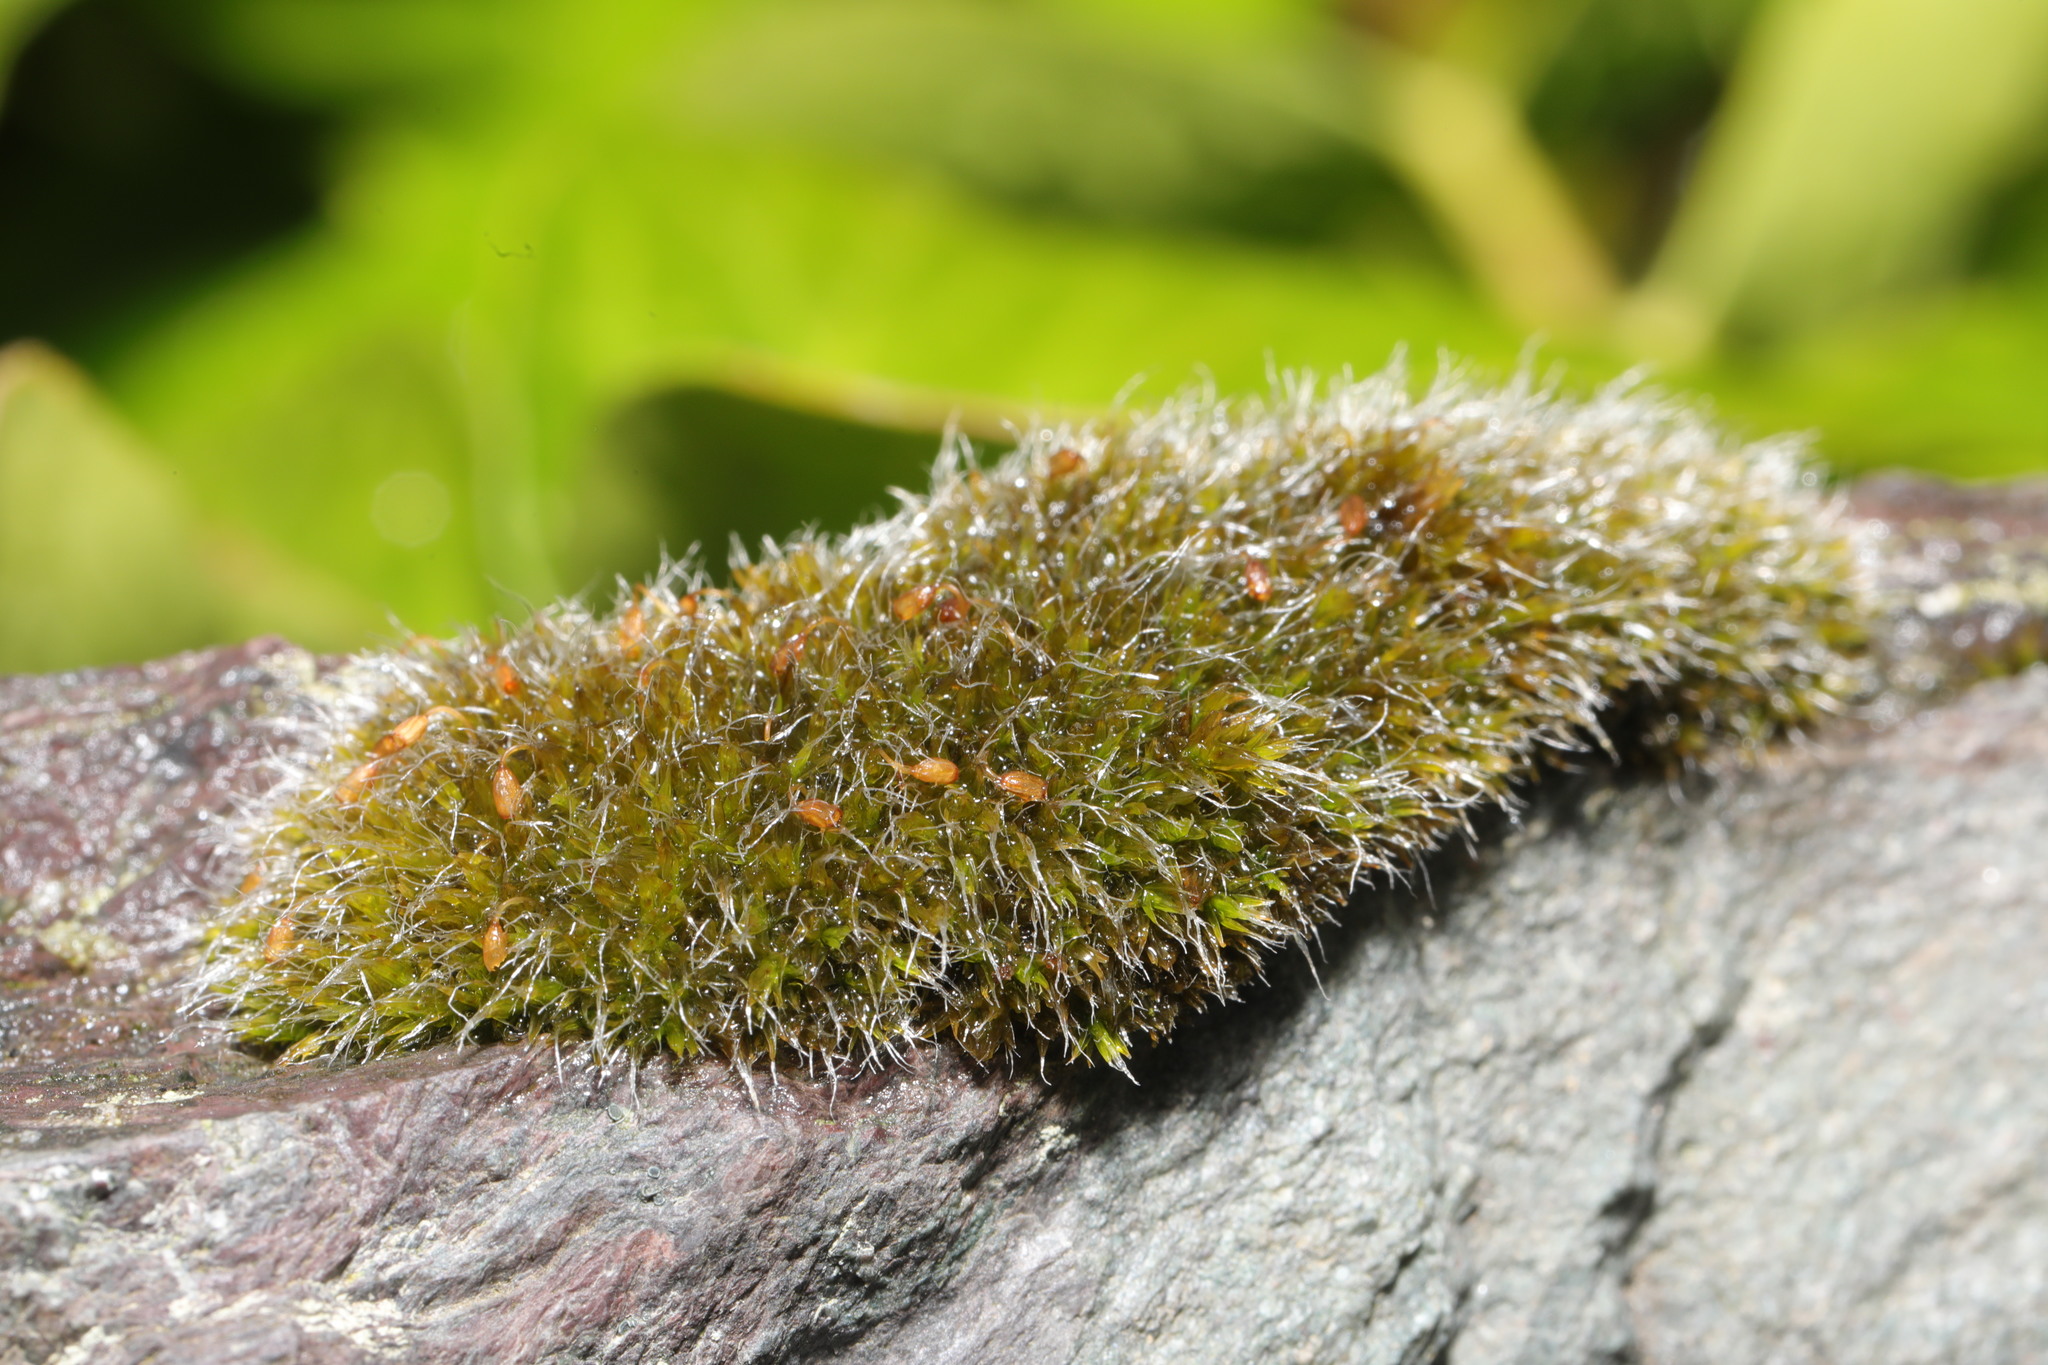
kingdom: Plantae
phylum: Bryophyta
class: Bryopsida
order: Grimmiales
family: Grimmiaceae
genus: Grimmia
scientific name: Grimmia pulvinata
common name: Grey-cushioned grimmia
